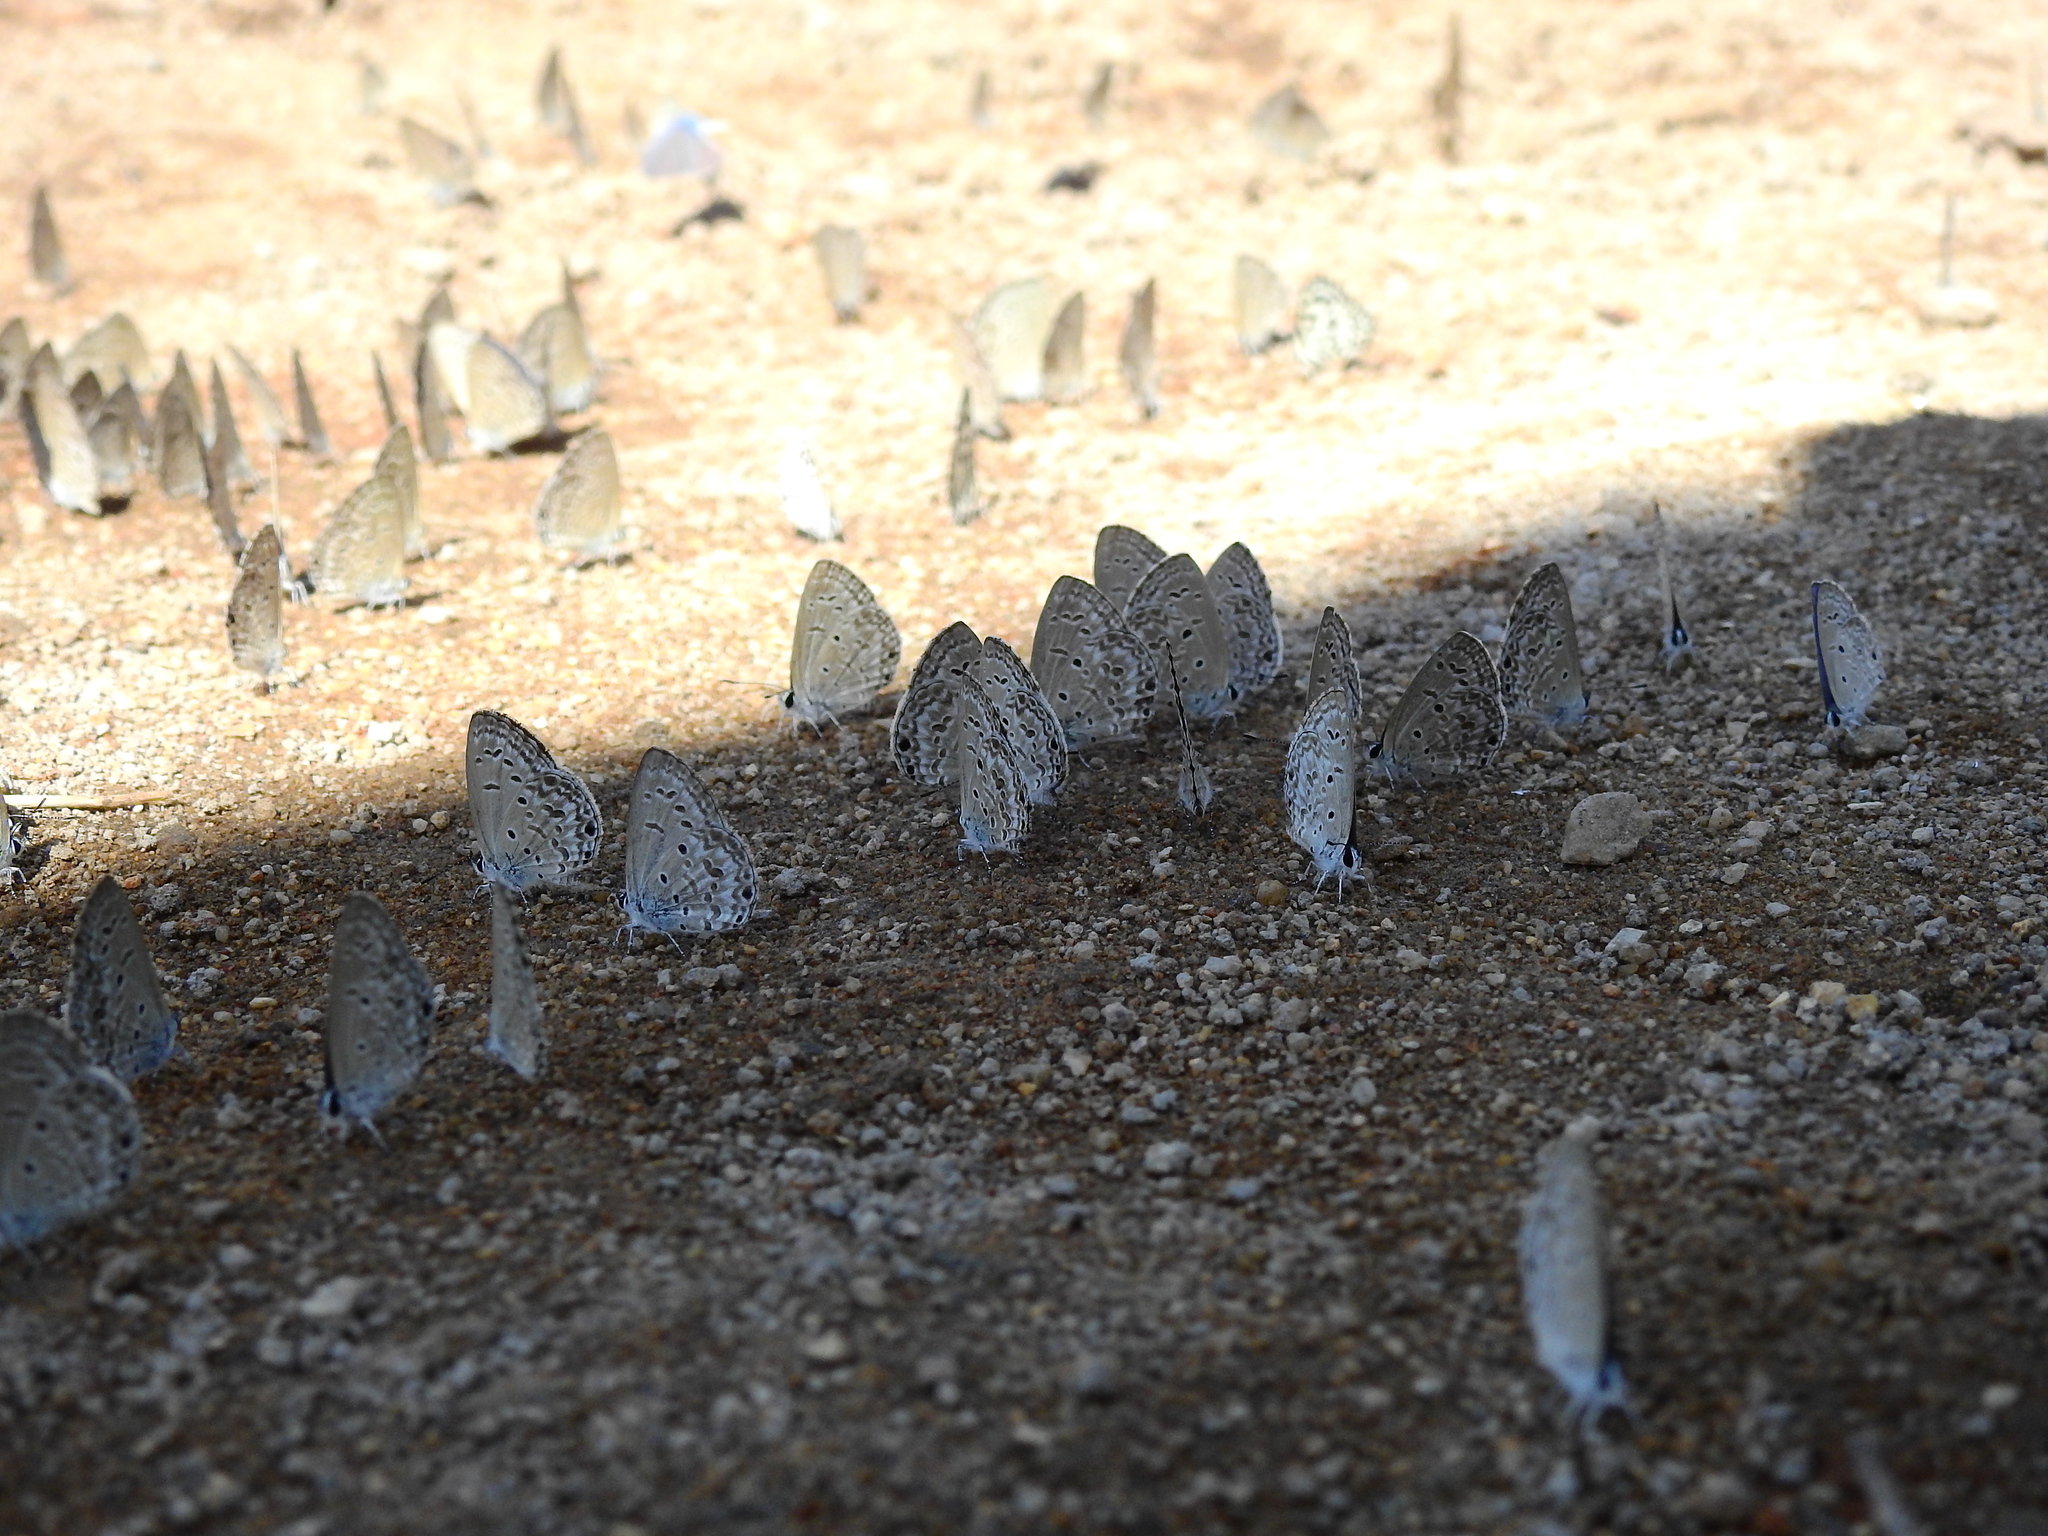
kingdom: Animalia
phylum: Arthropoda
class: Insecta
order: Lepidoptera
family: Lycaenidae
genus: Chilades
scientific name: Chilades laius
